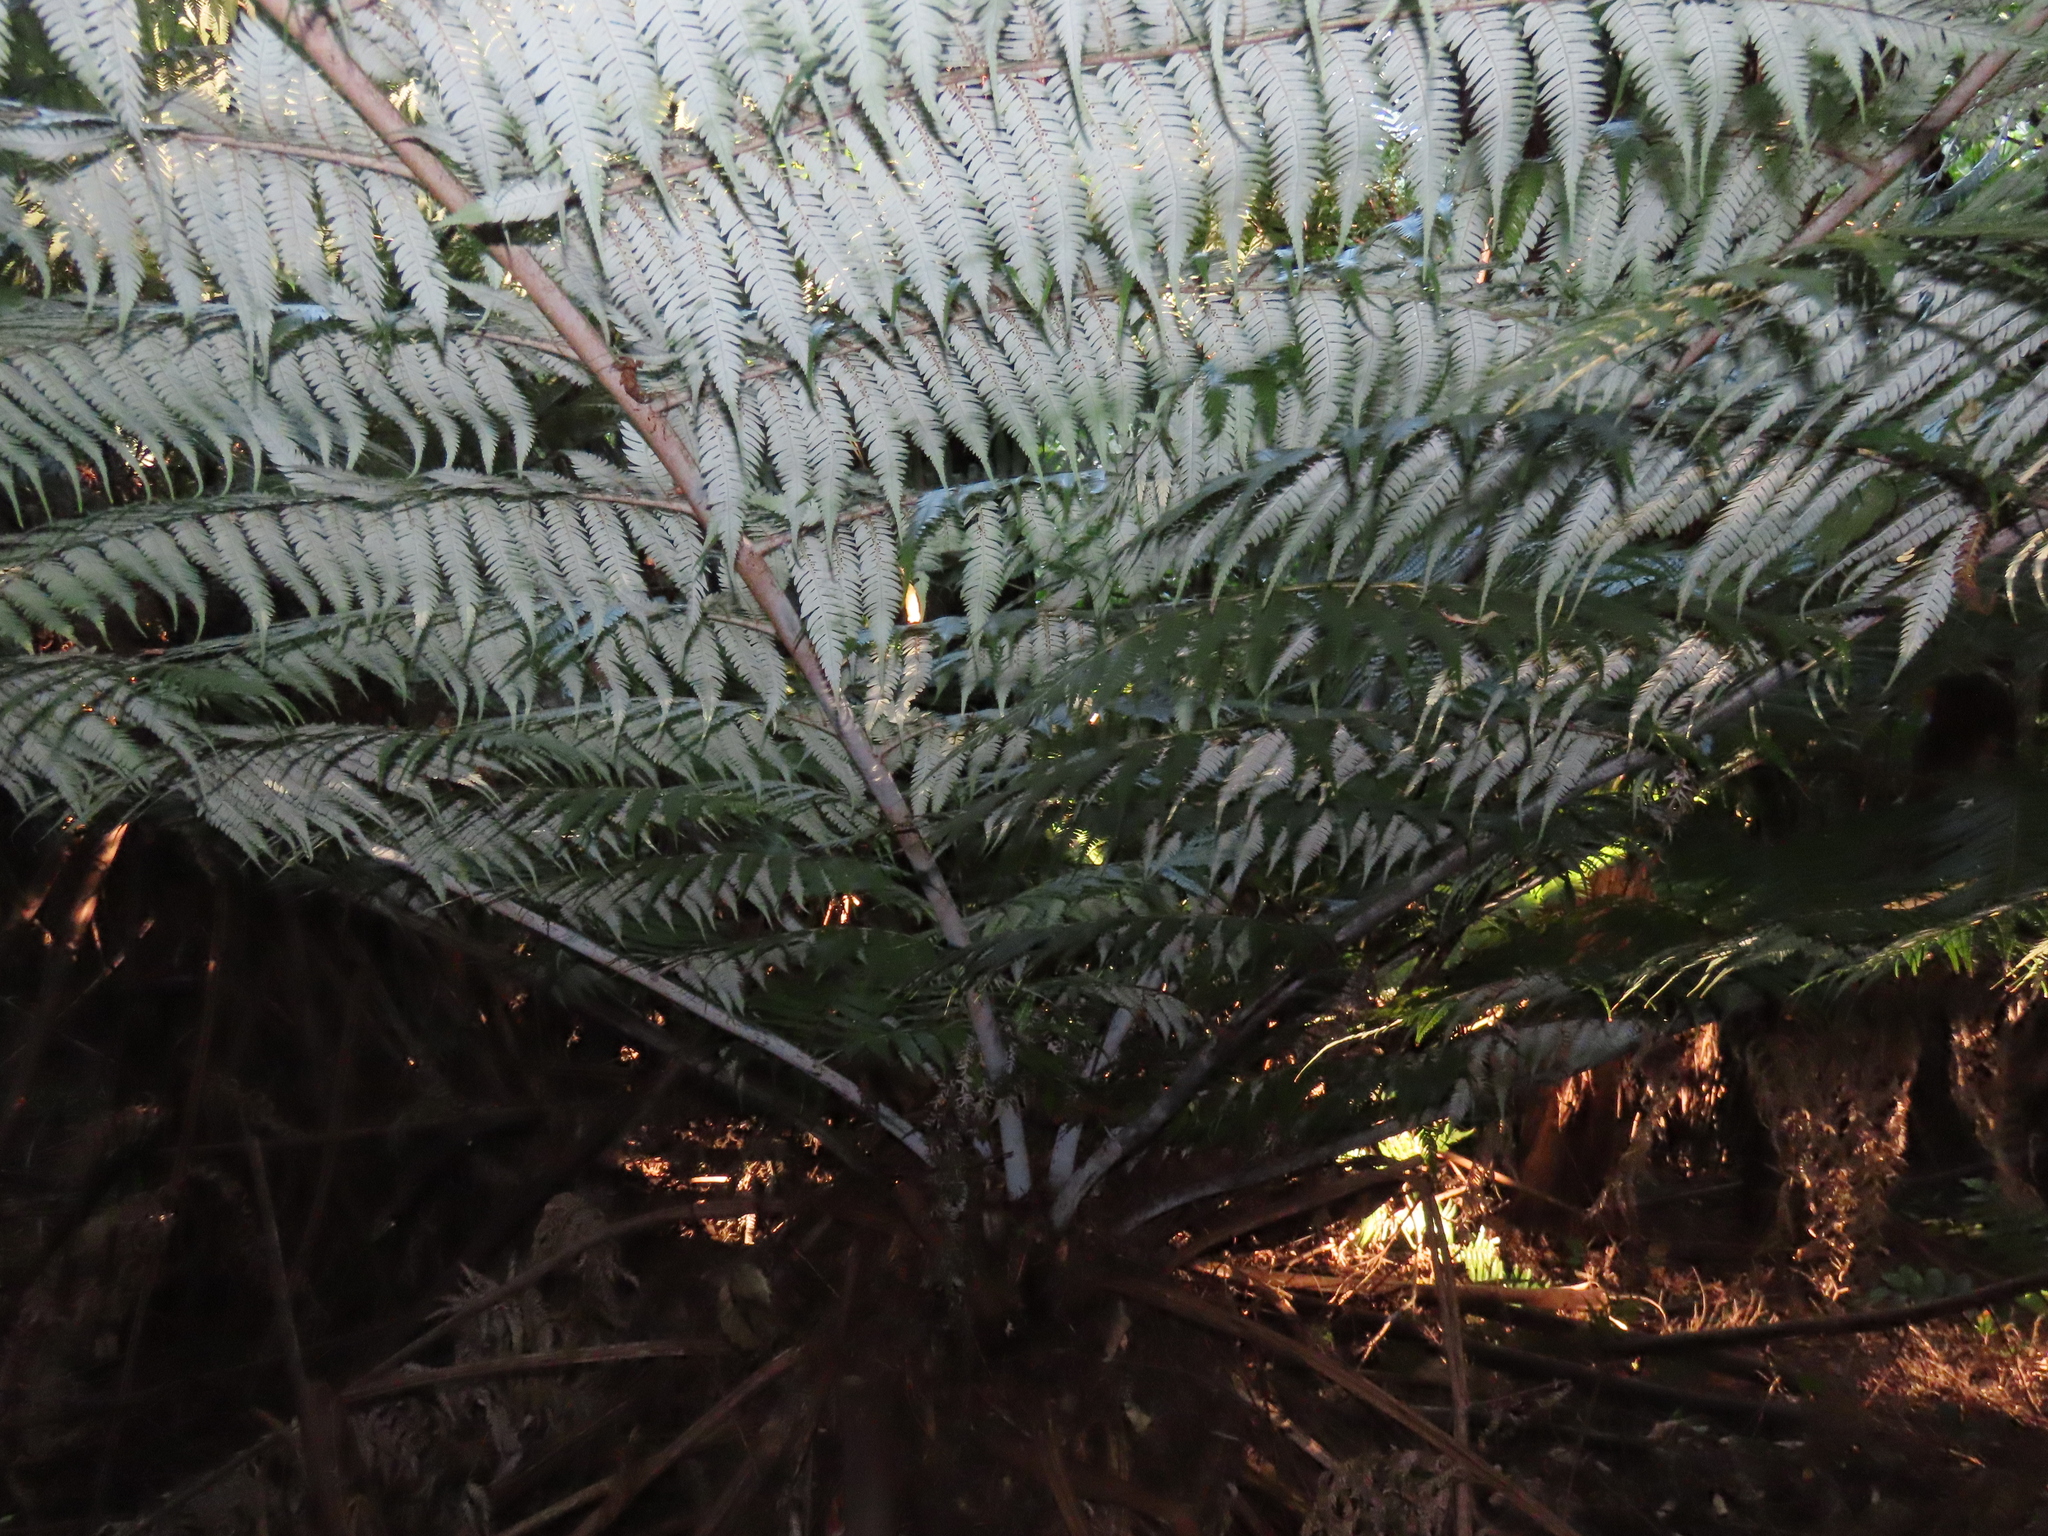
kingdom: Plantae
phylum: Tracheophyta
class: Polypodiopsida
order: Cyatheales
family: Cyatheaceae
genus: Alsophila
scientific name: Alsophila dealbata
